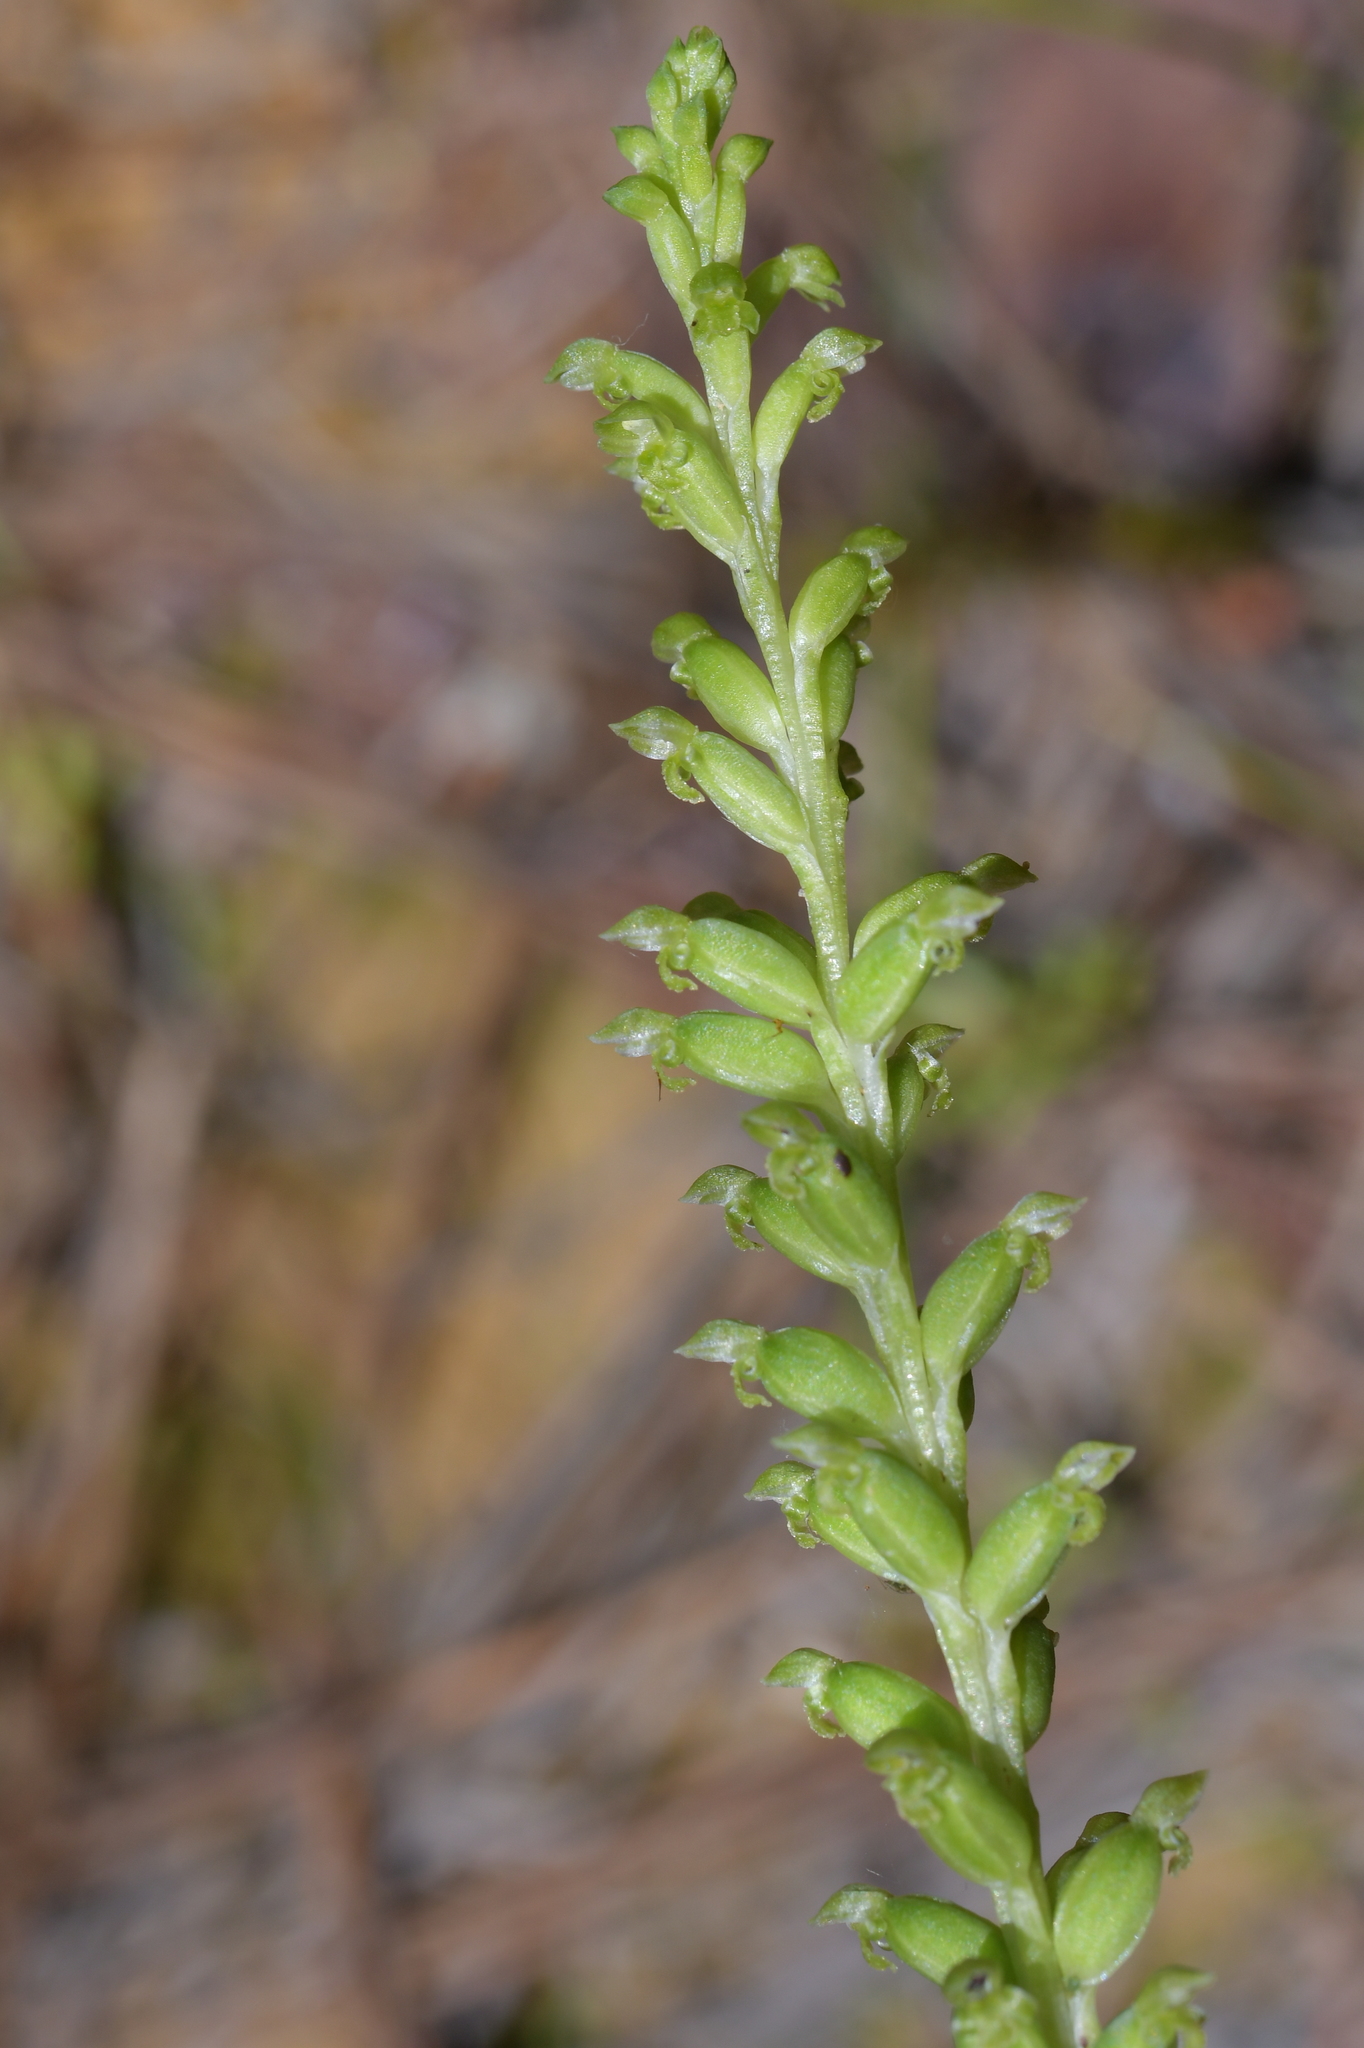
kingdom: Plantae
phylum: Tracheophyta
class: Liliopsida
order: Asparagales
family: Orchidaceae
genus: Microtis
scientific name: Microtis unifolia
